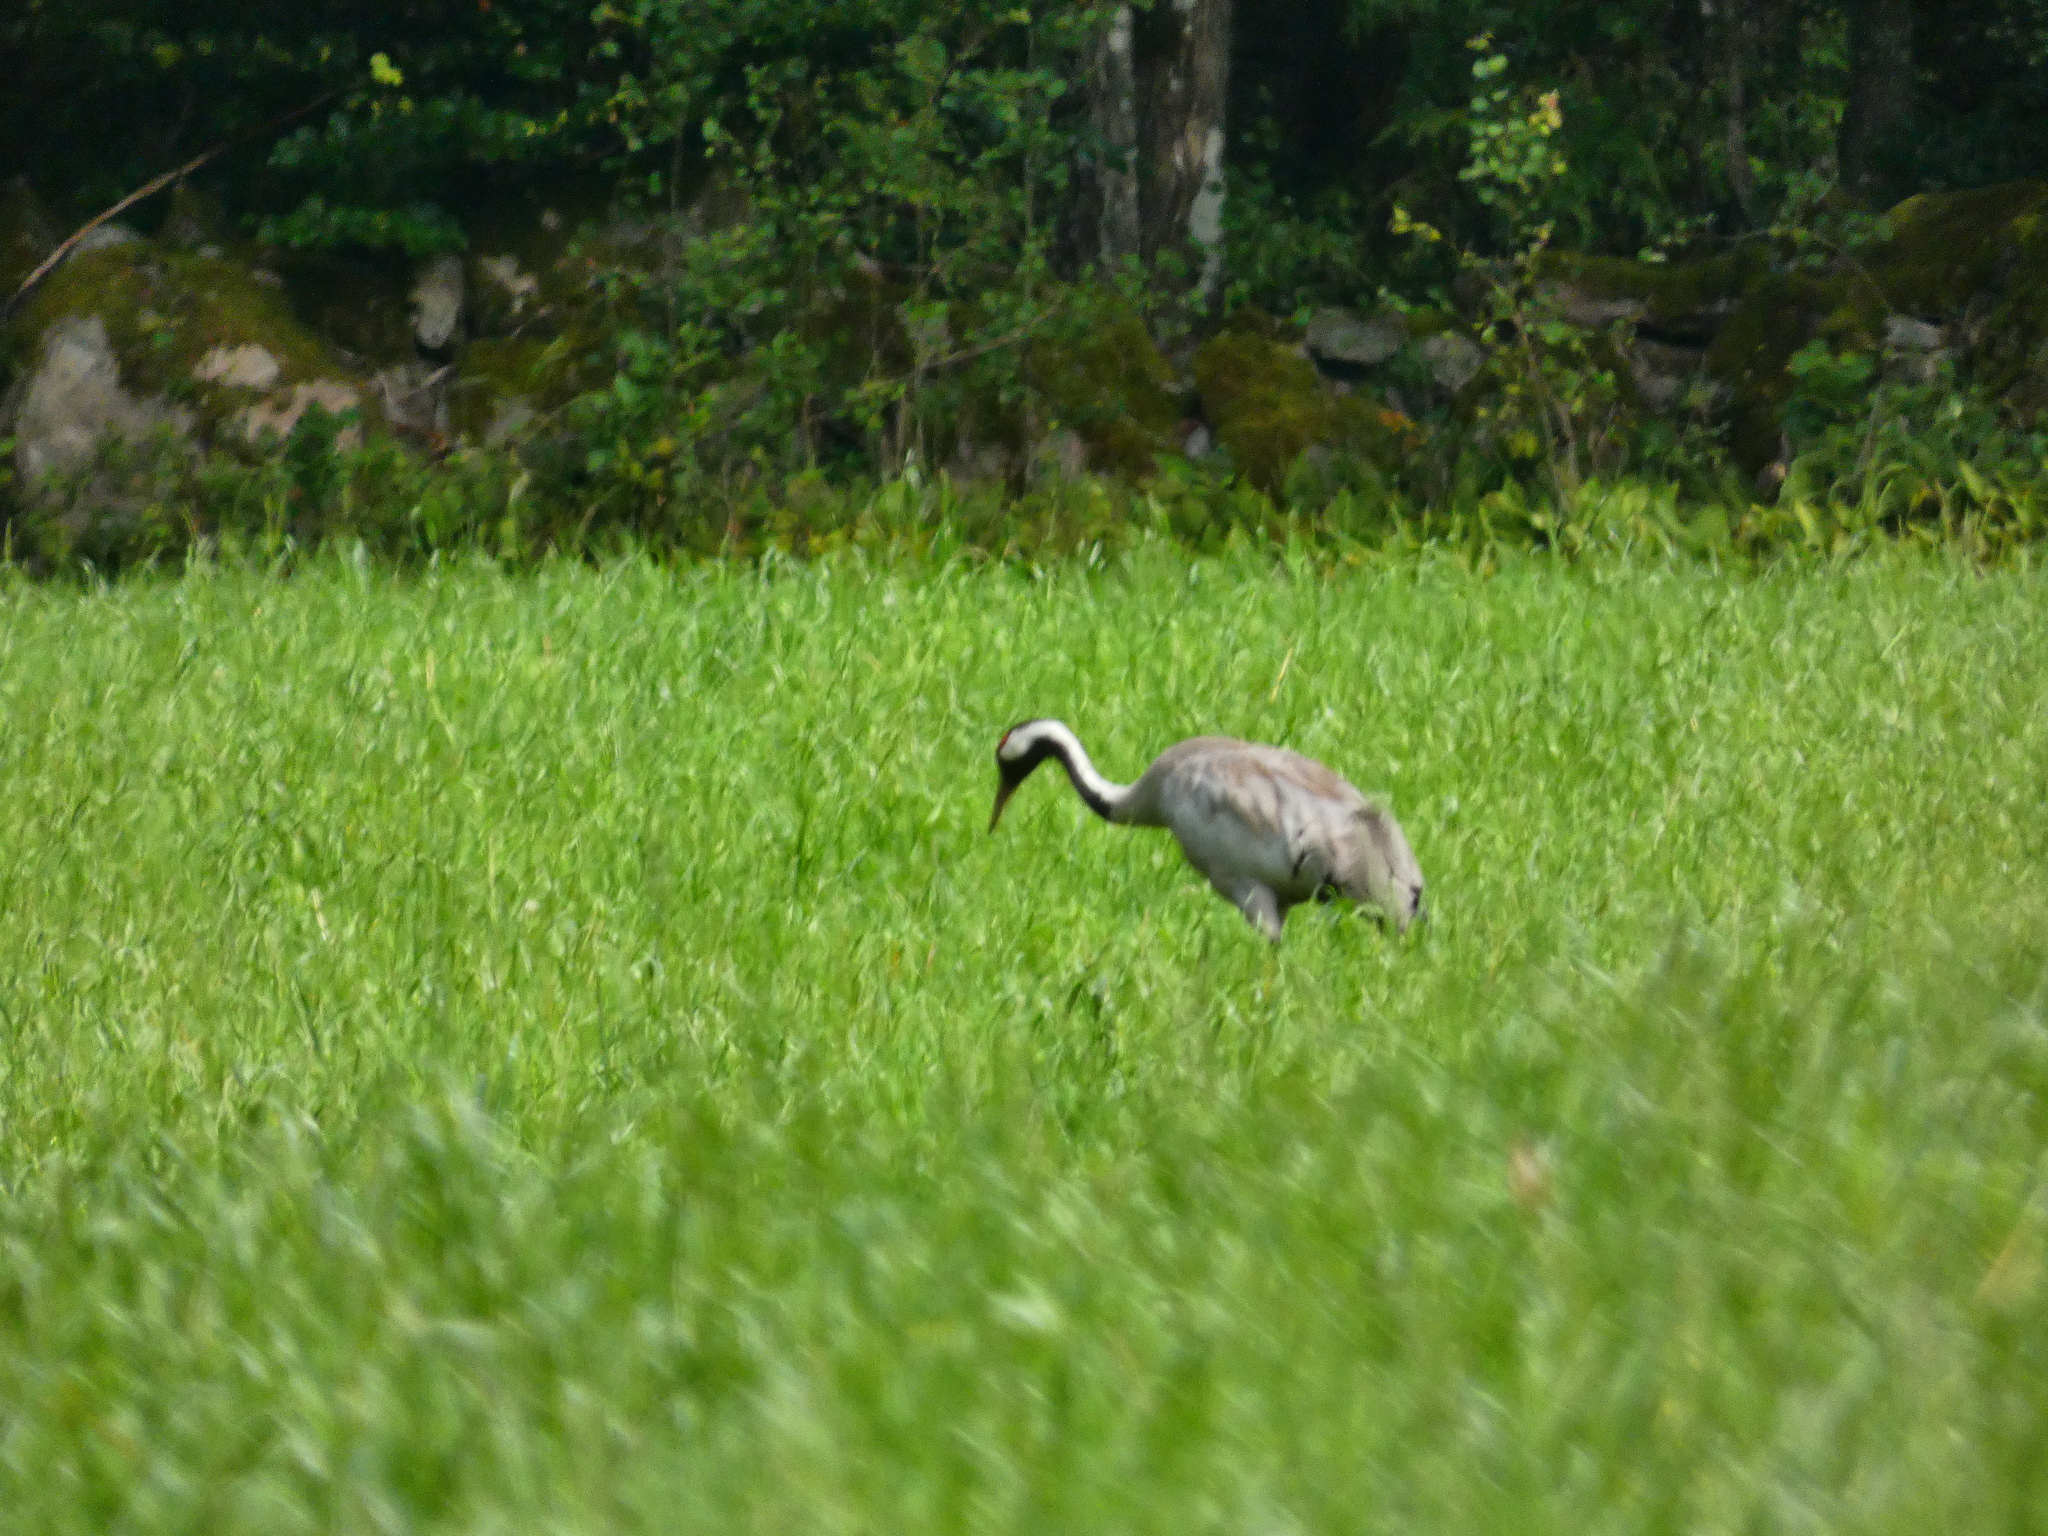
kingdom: Animalia
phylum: Chordata
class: Aves
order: Gruiformes
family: Gruidae
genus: Grus
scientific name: Grus grus
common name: Common crane
